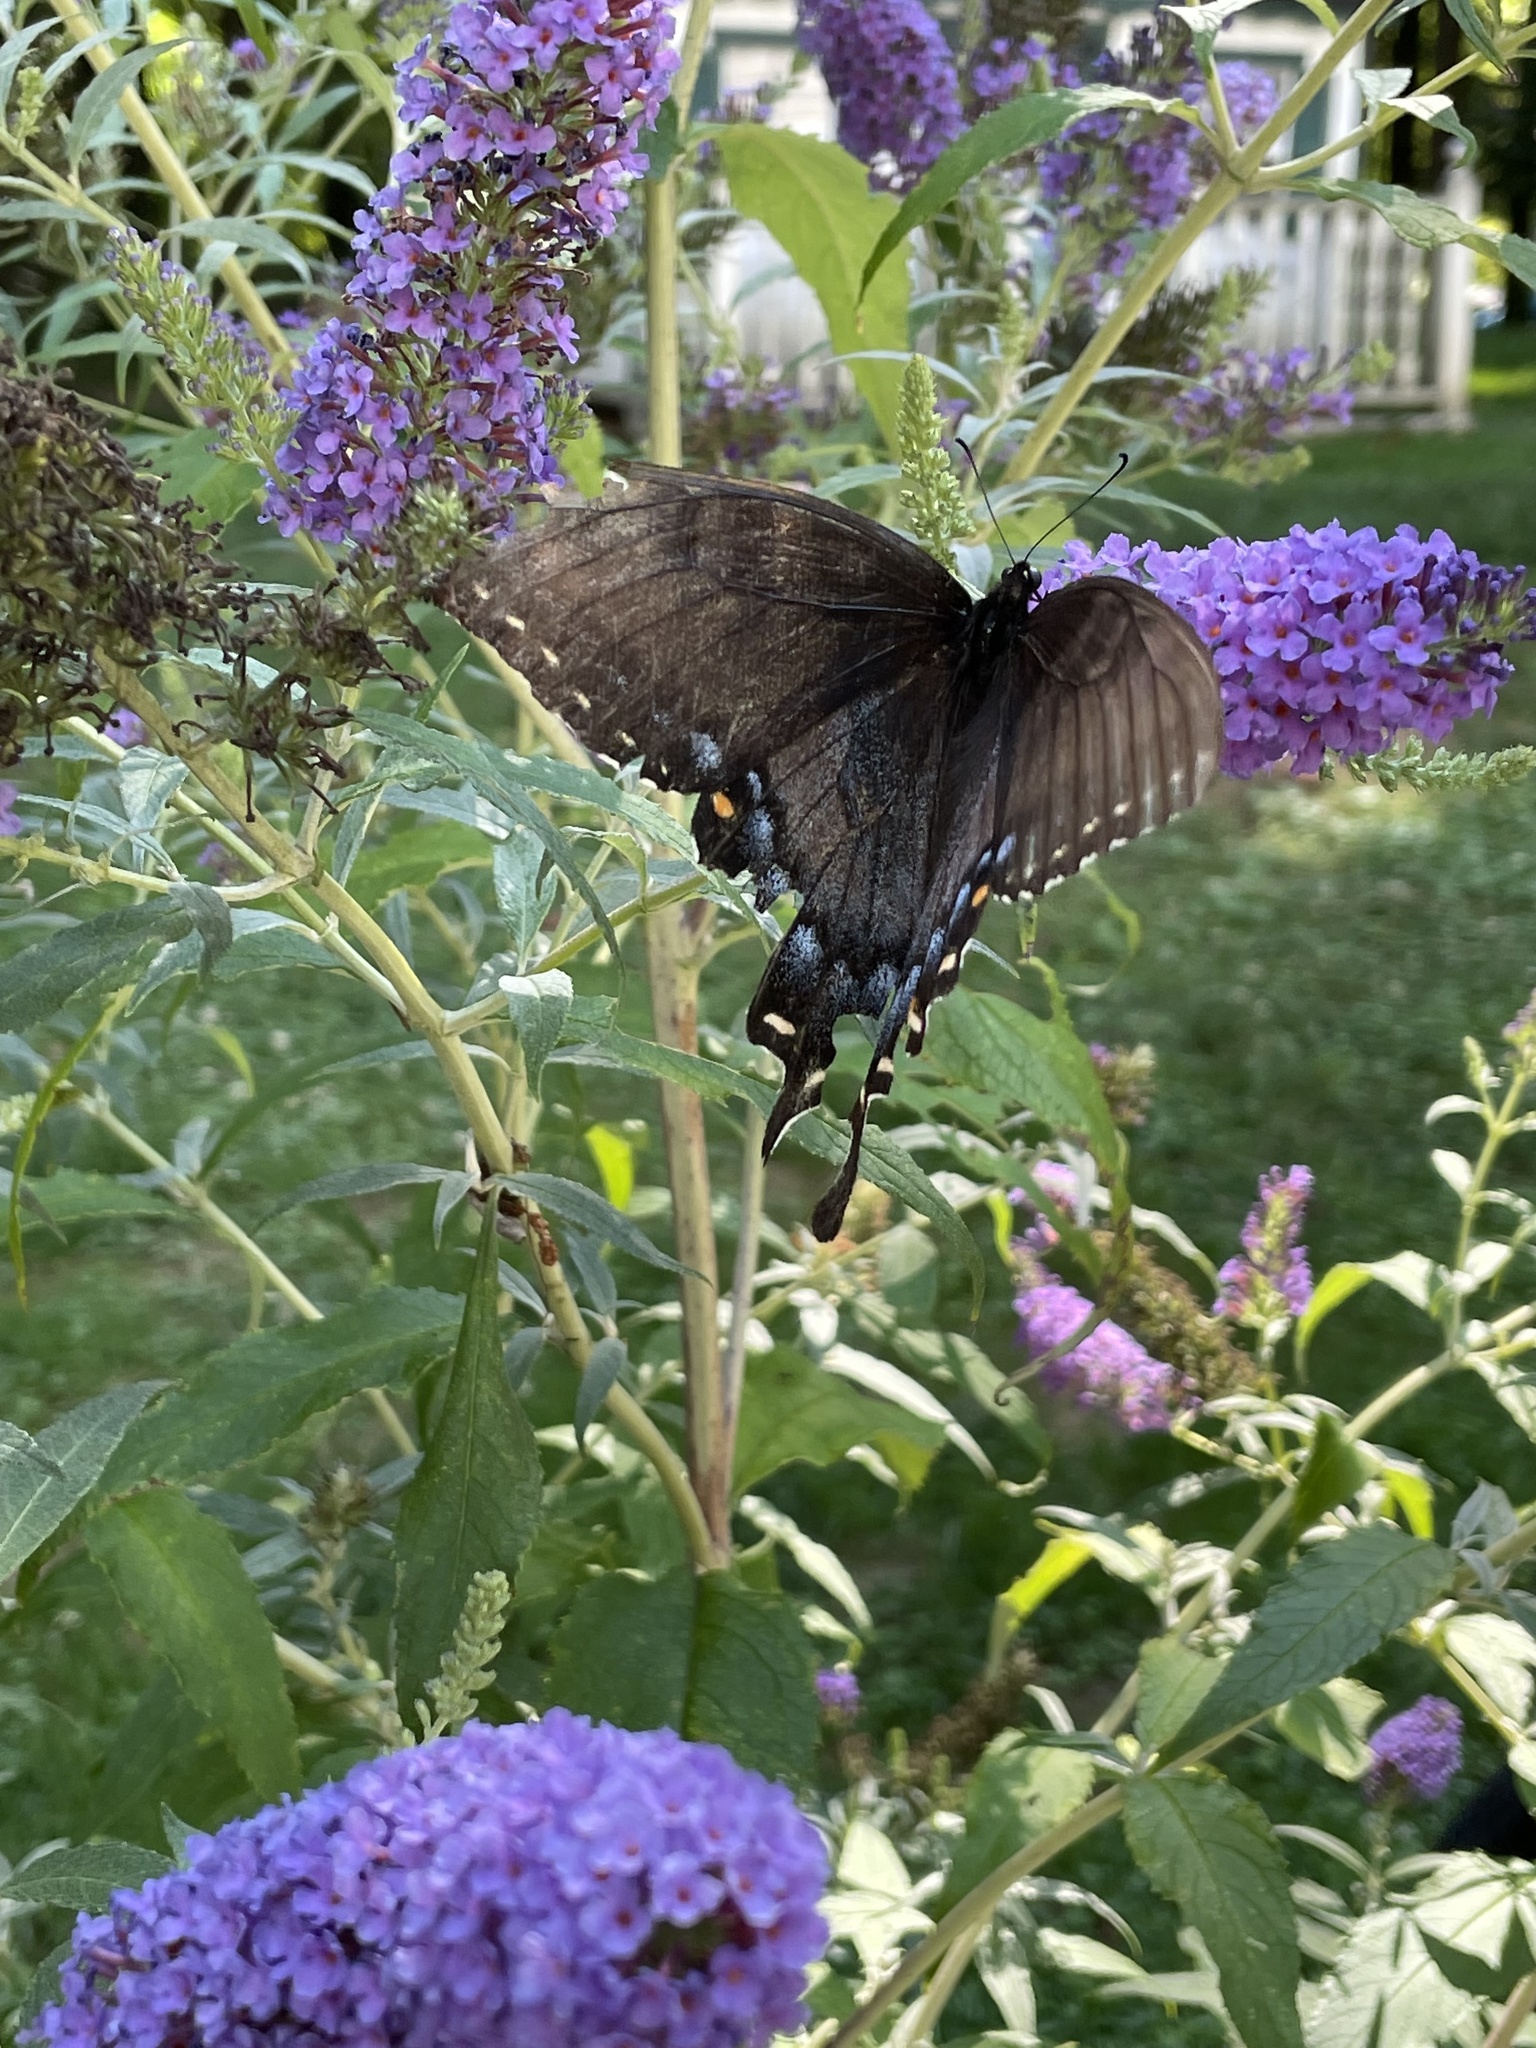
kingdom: Animalia
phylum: Arthropoda
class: Insecta
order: Lepidoptera
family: Papilionidae
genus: Papilio
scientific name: Papilio glaucus
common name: Tiger swallowtail
